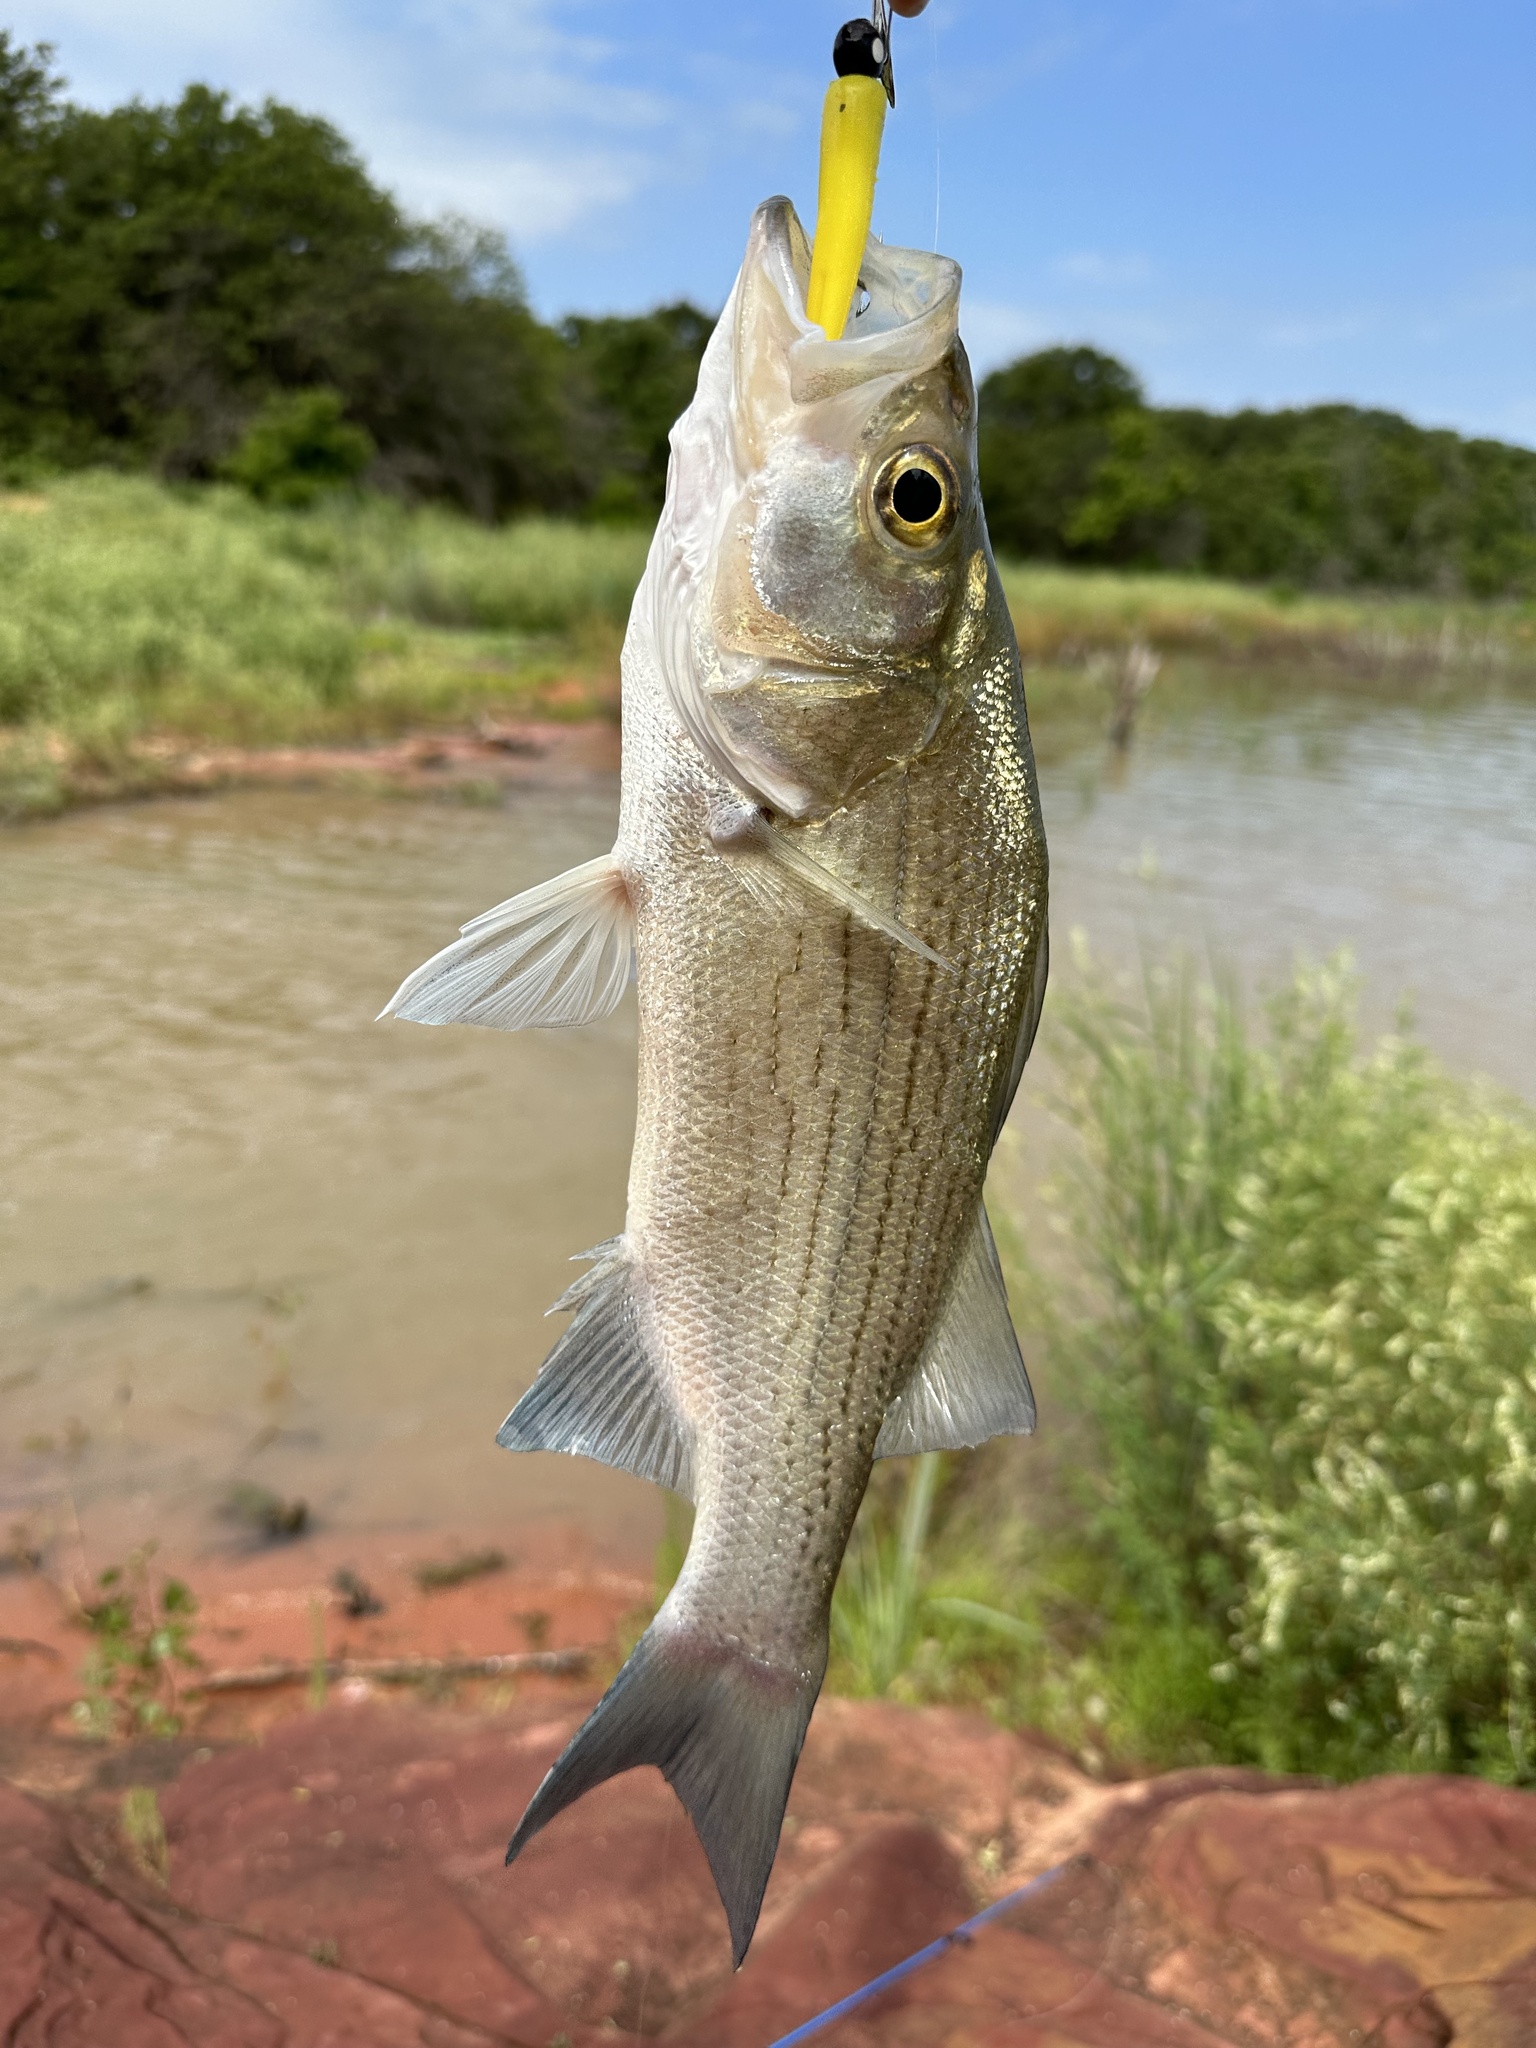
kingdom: Animalia
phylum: Chordata
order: Perciformes
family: Moronidae
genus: Morone
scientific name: Morone chrysops
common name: White bass
